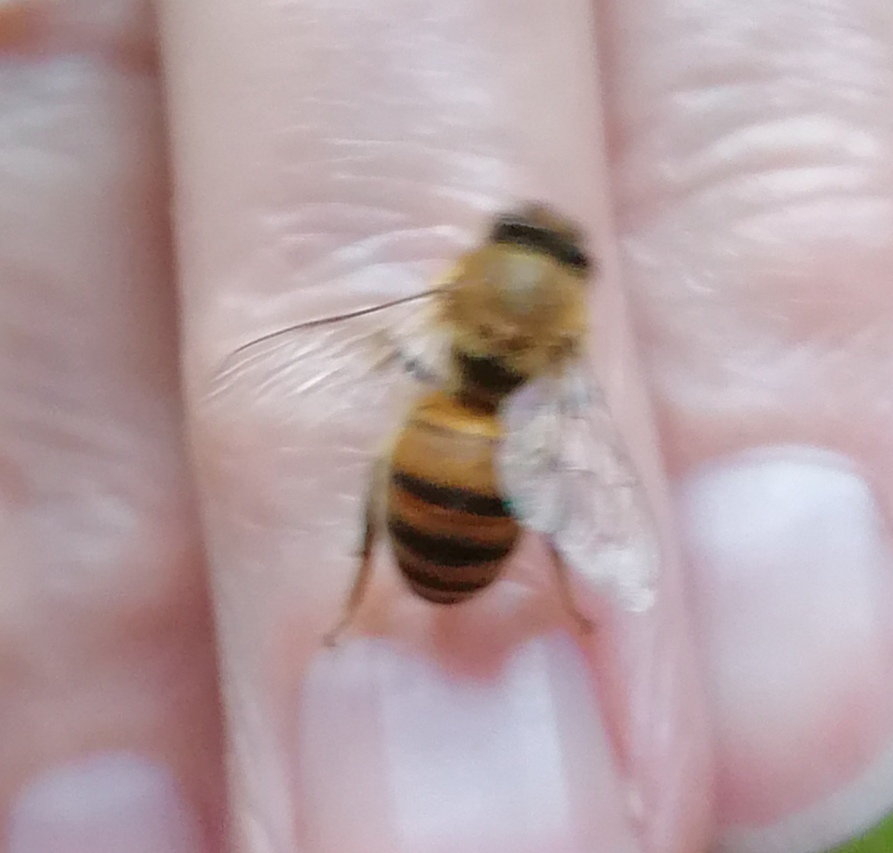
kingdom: Animalia
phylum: Arthropoda
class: Insecta
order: Hymenoptera
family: Apidae
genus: Apis
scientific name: Apis mellifera
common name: Honey bee
